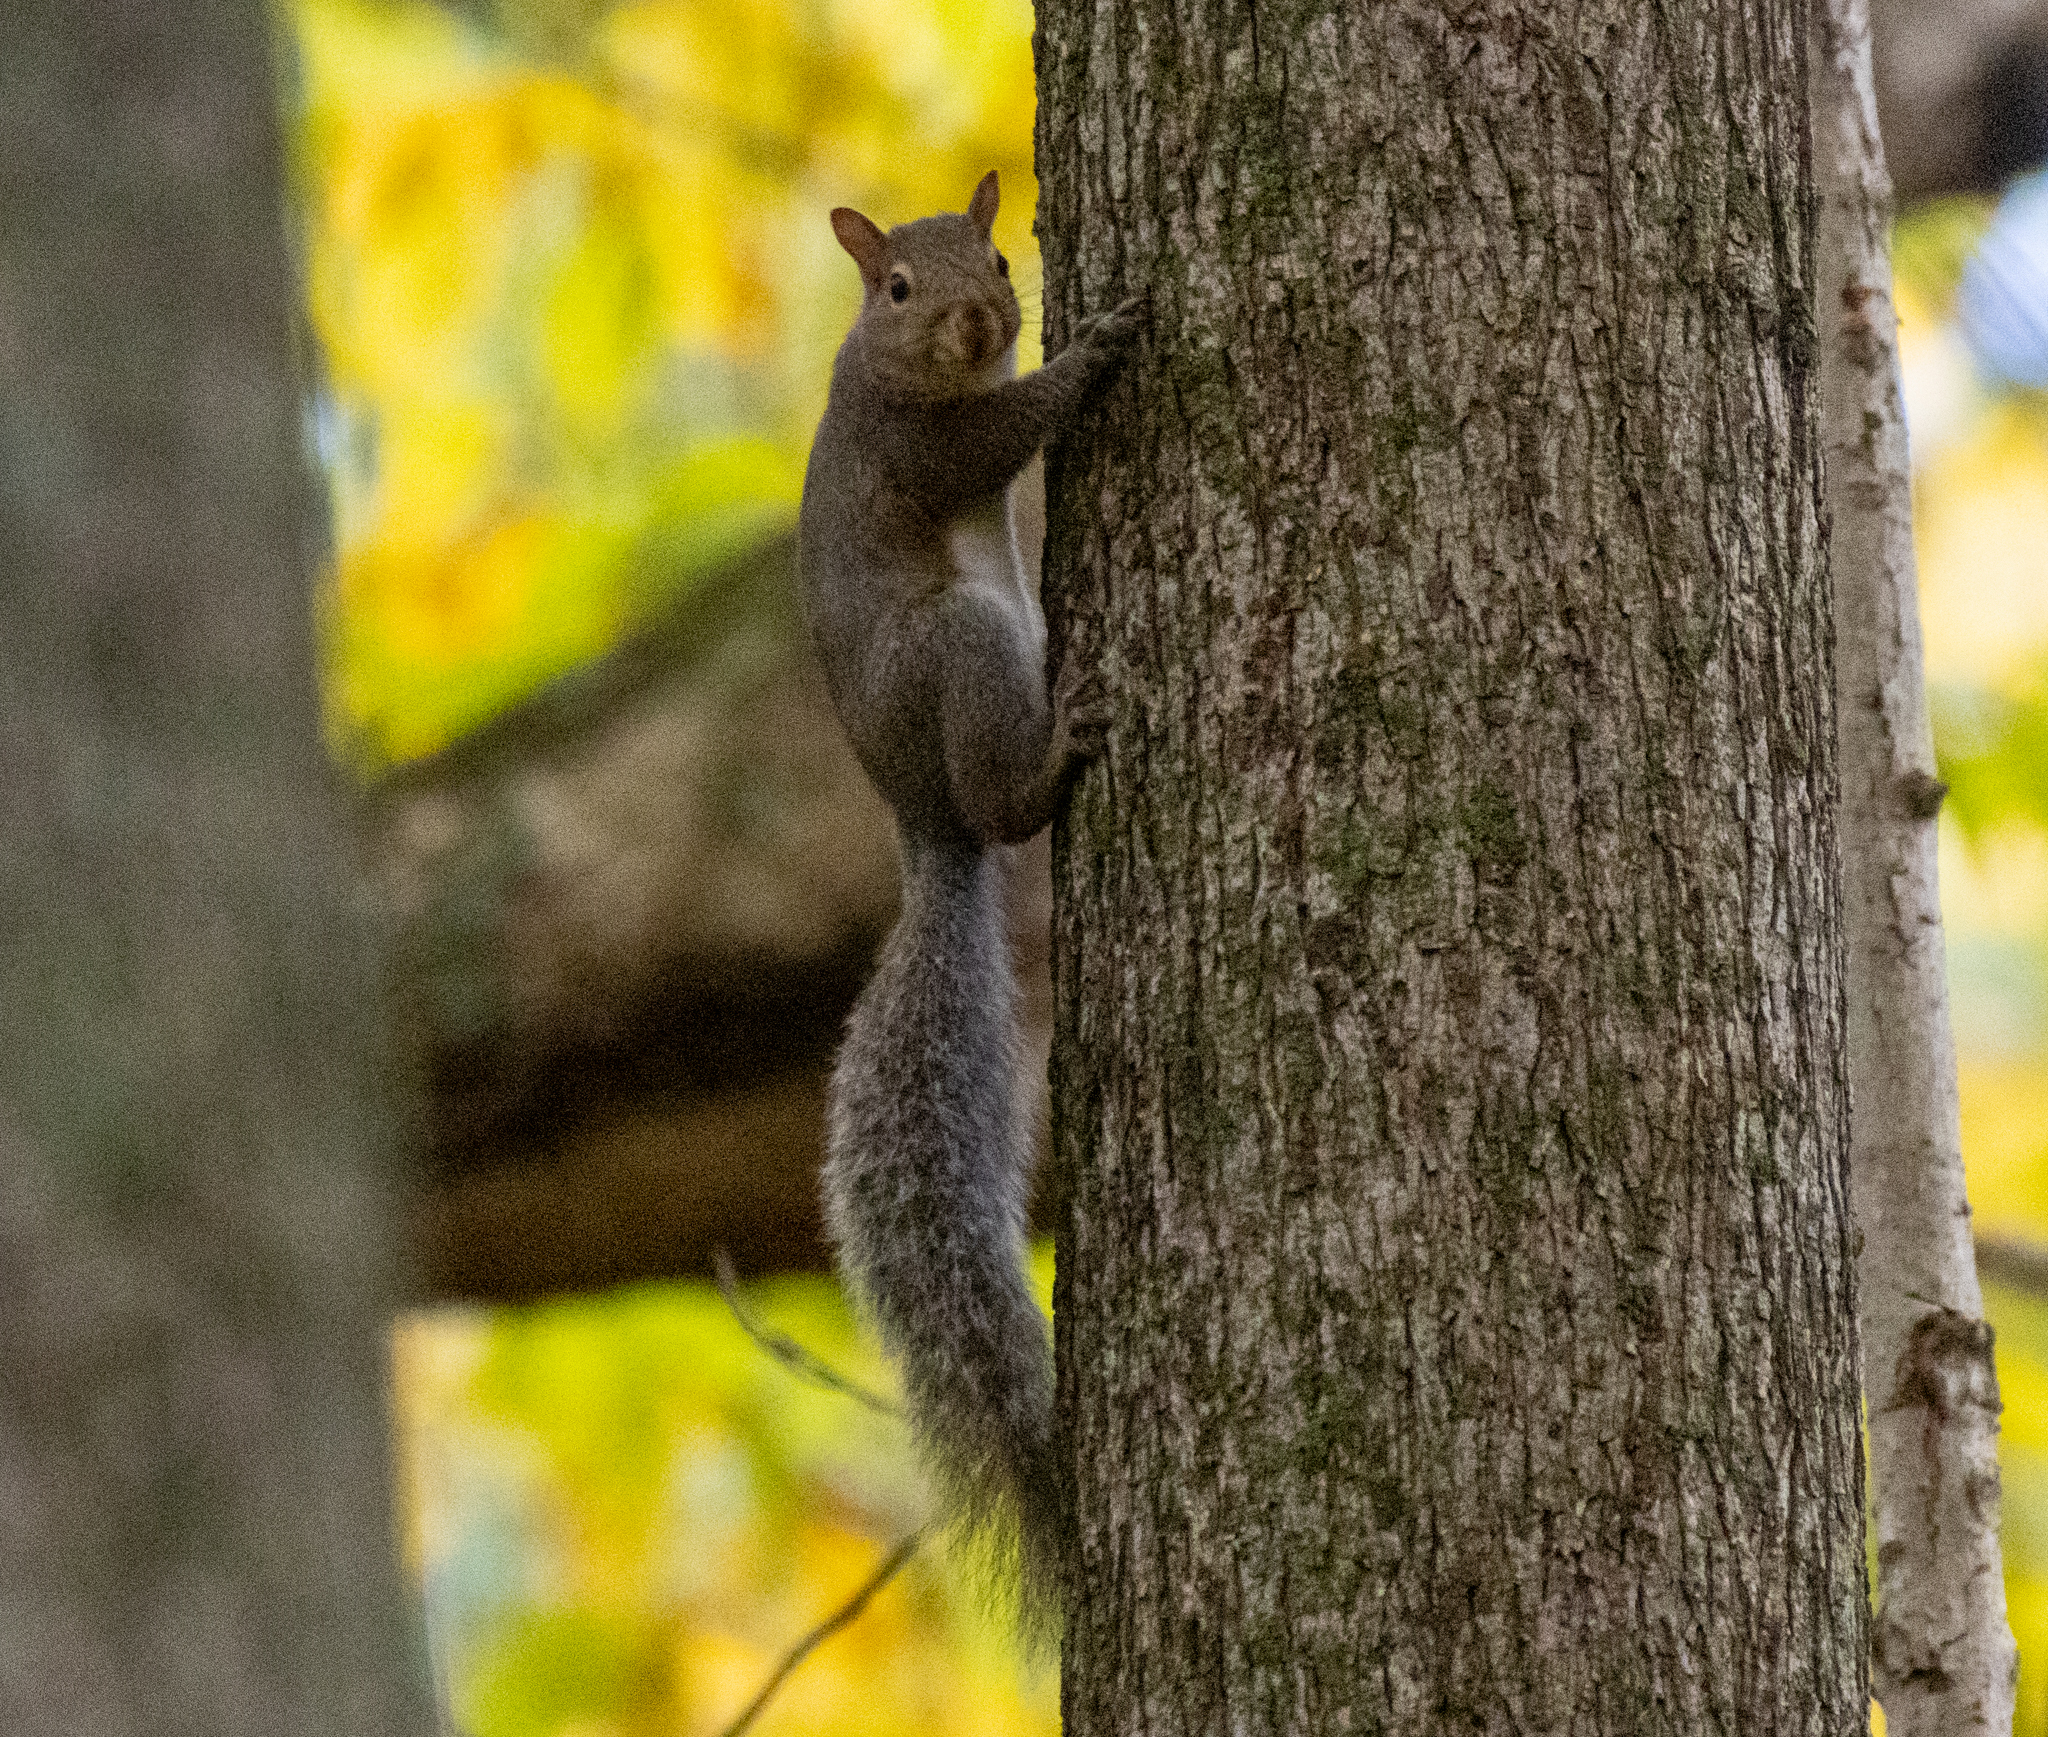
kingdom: Animalia
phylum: Chordata
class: Mammalia
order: Rodentia
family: Sciuridae
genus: Sciurus
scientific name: Sciurus carolinensis
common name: Eastern gray squirrel
